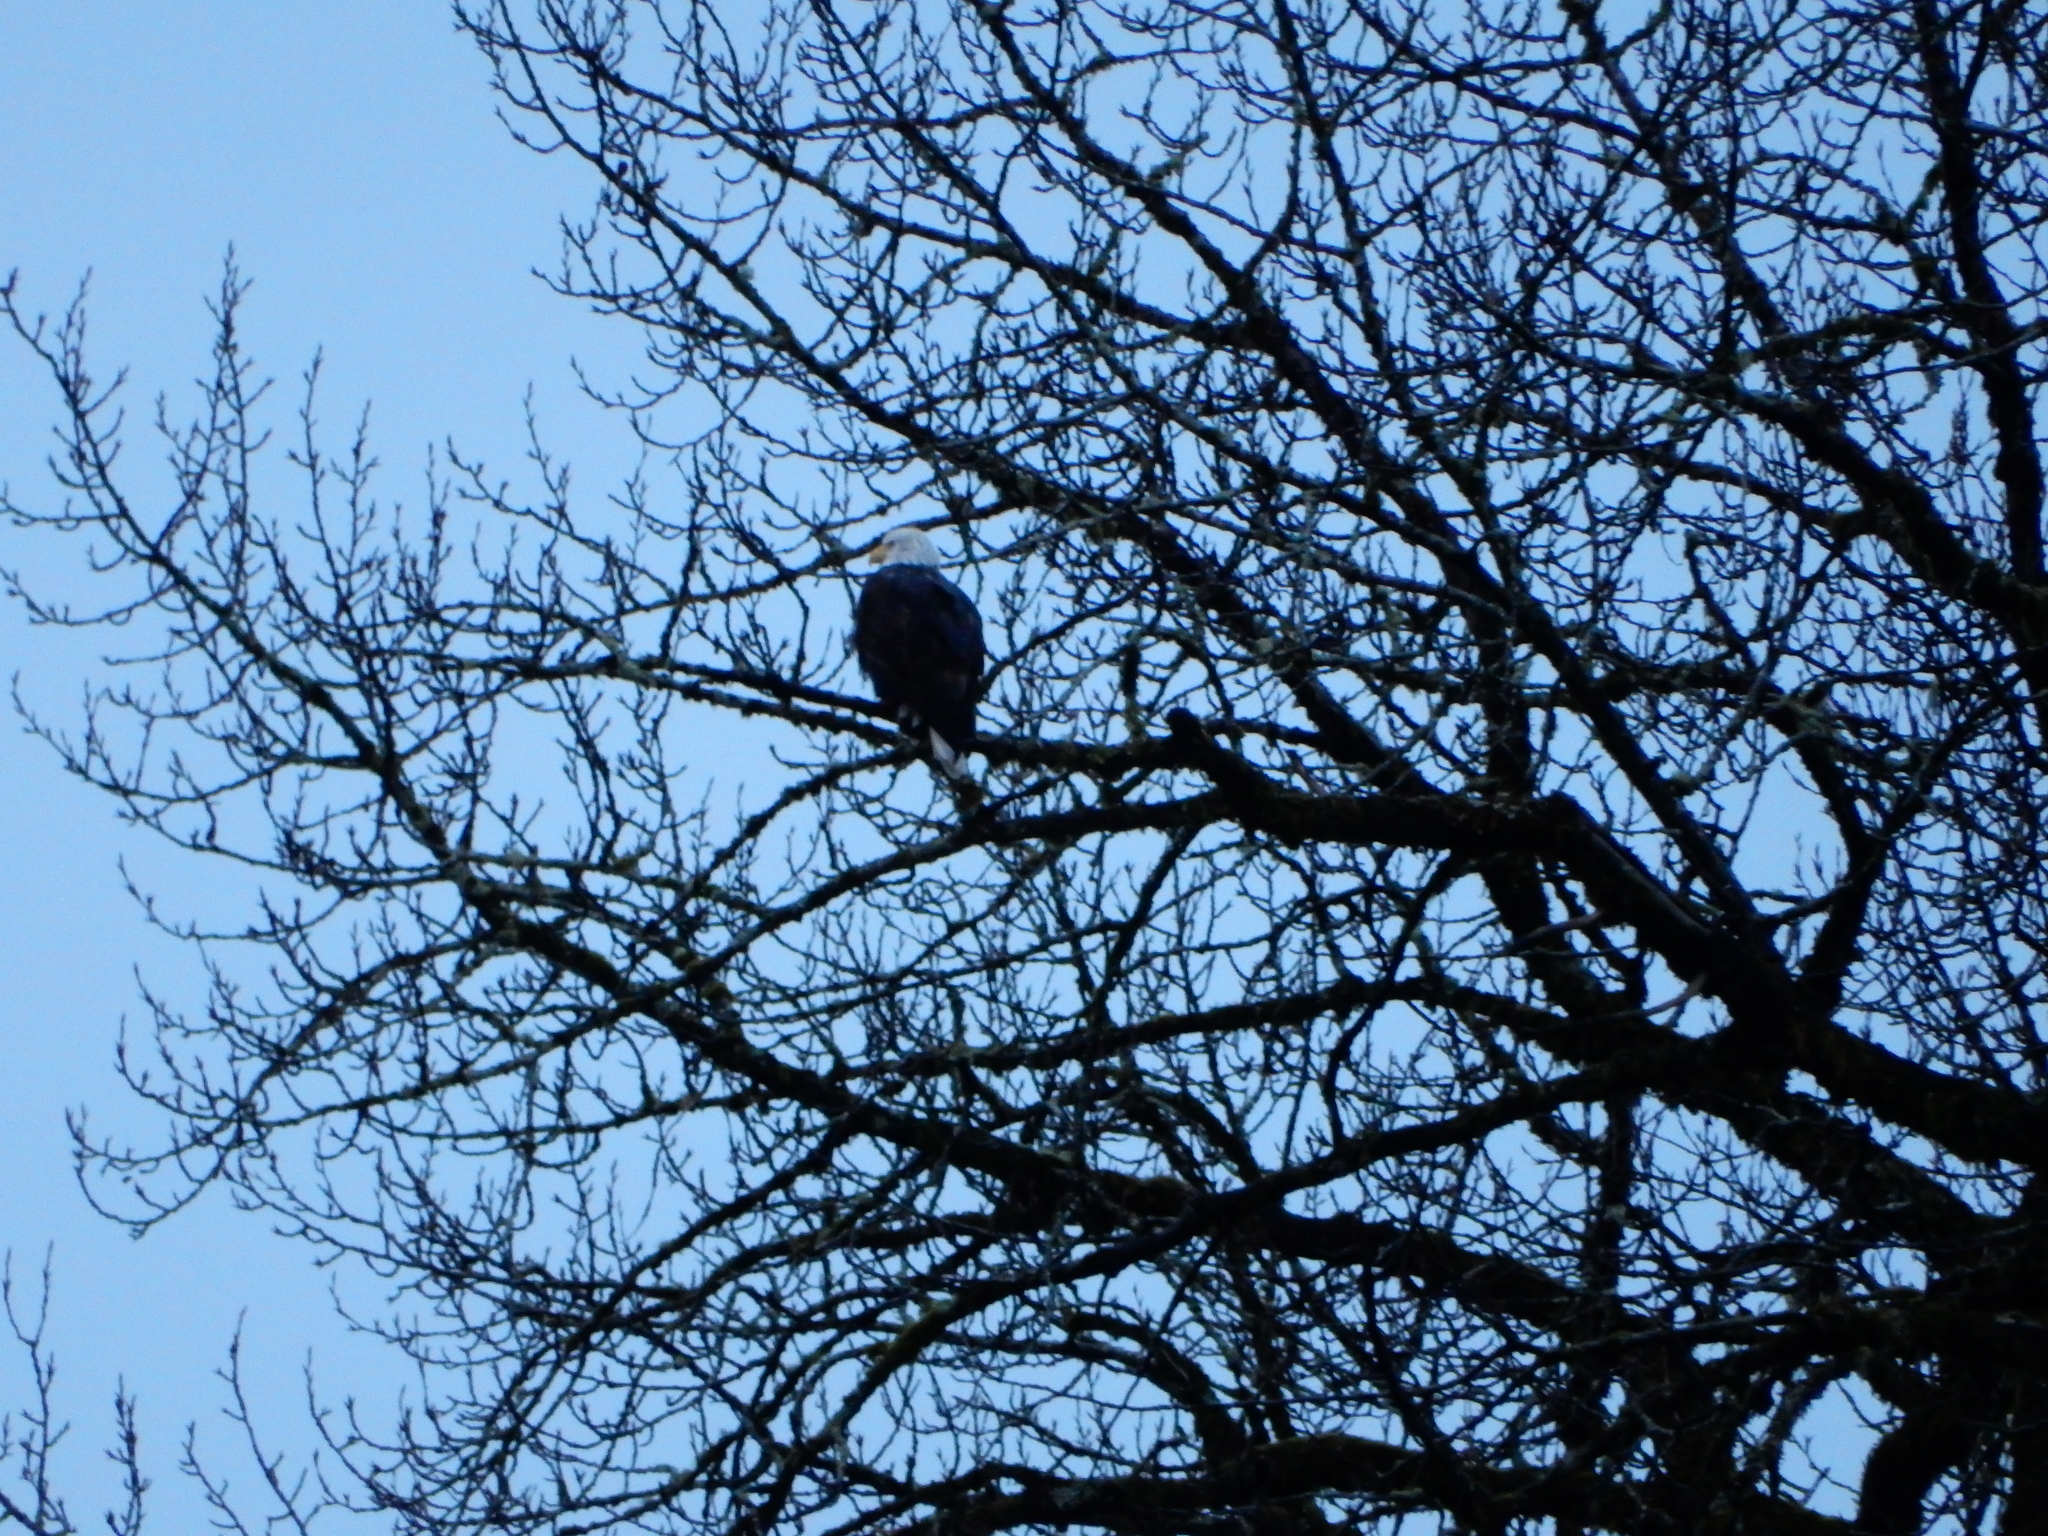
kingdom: Animalia
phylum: Chordata
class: Aves
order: Accipitriformes
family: Accipitridae
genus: Haliaeetus
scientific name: Haliaeetus leucocephalus
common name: Bald eagle
